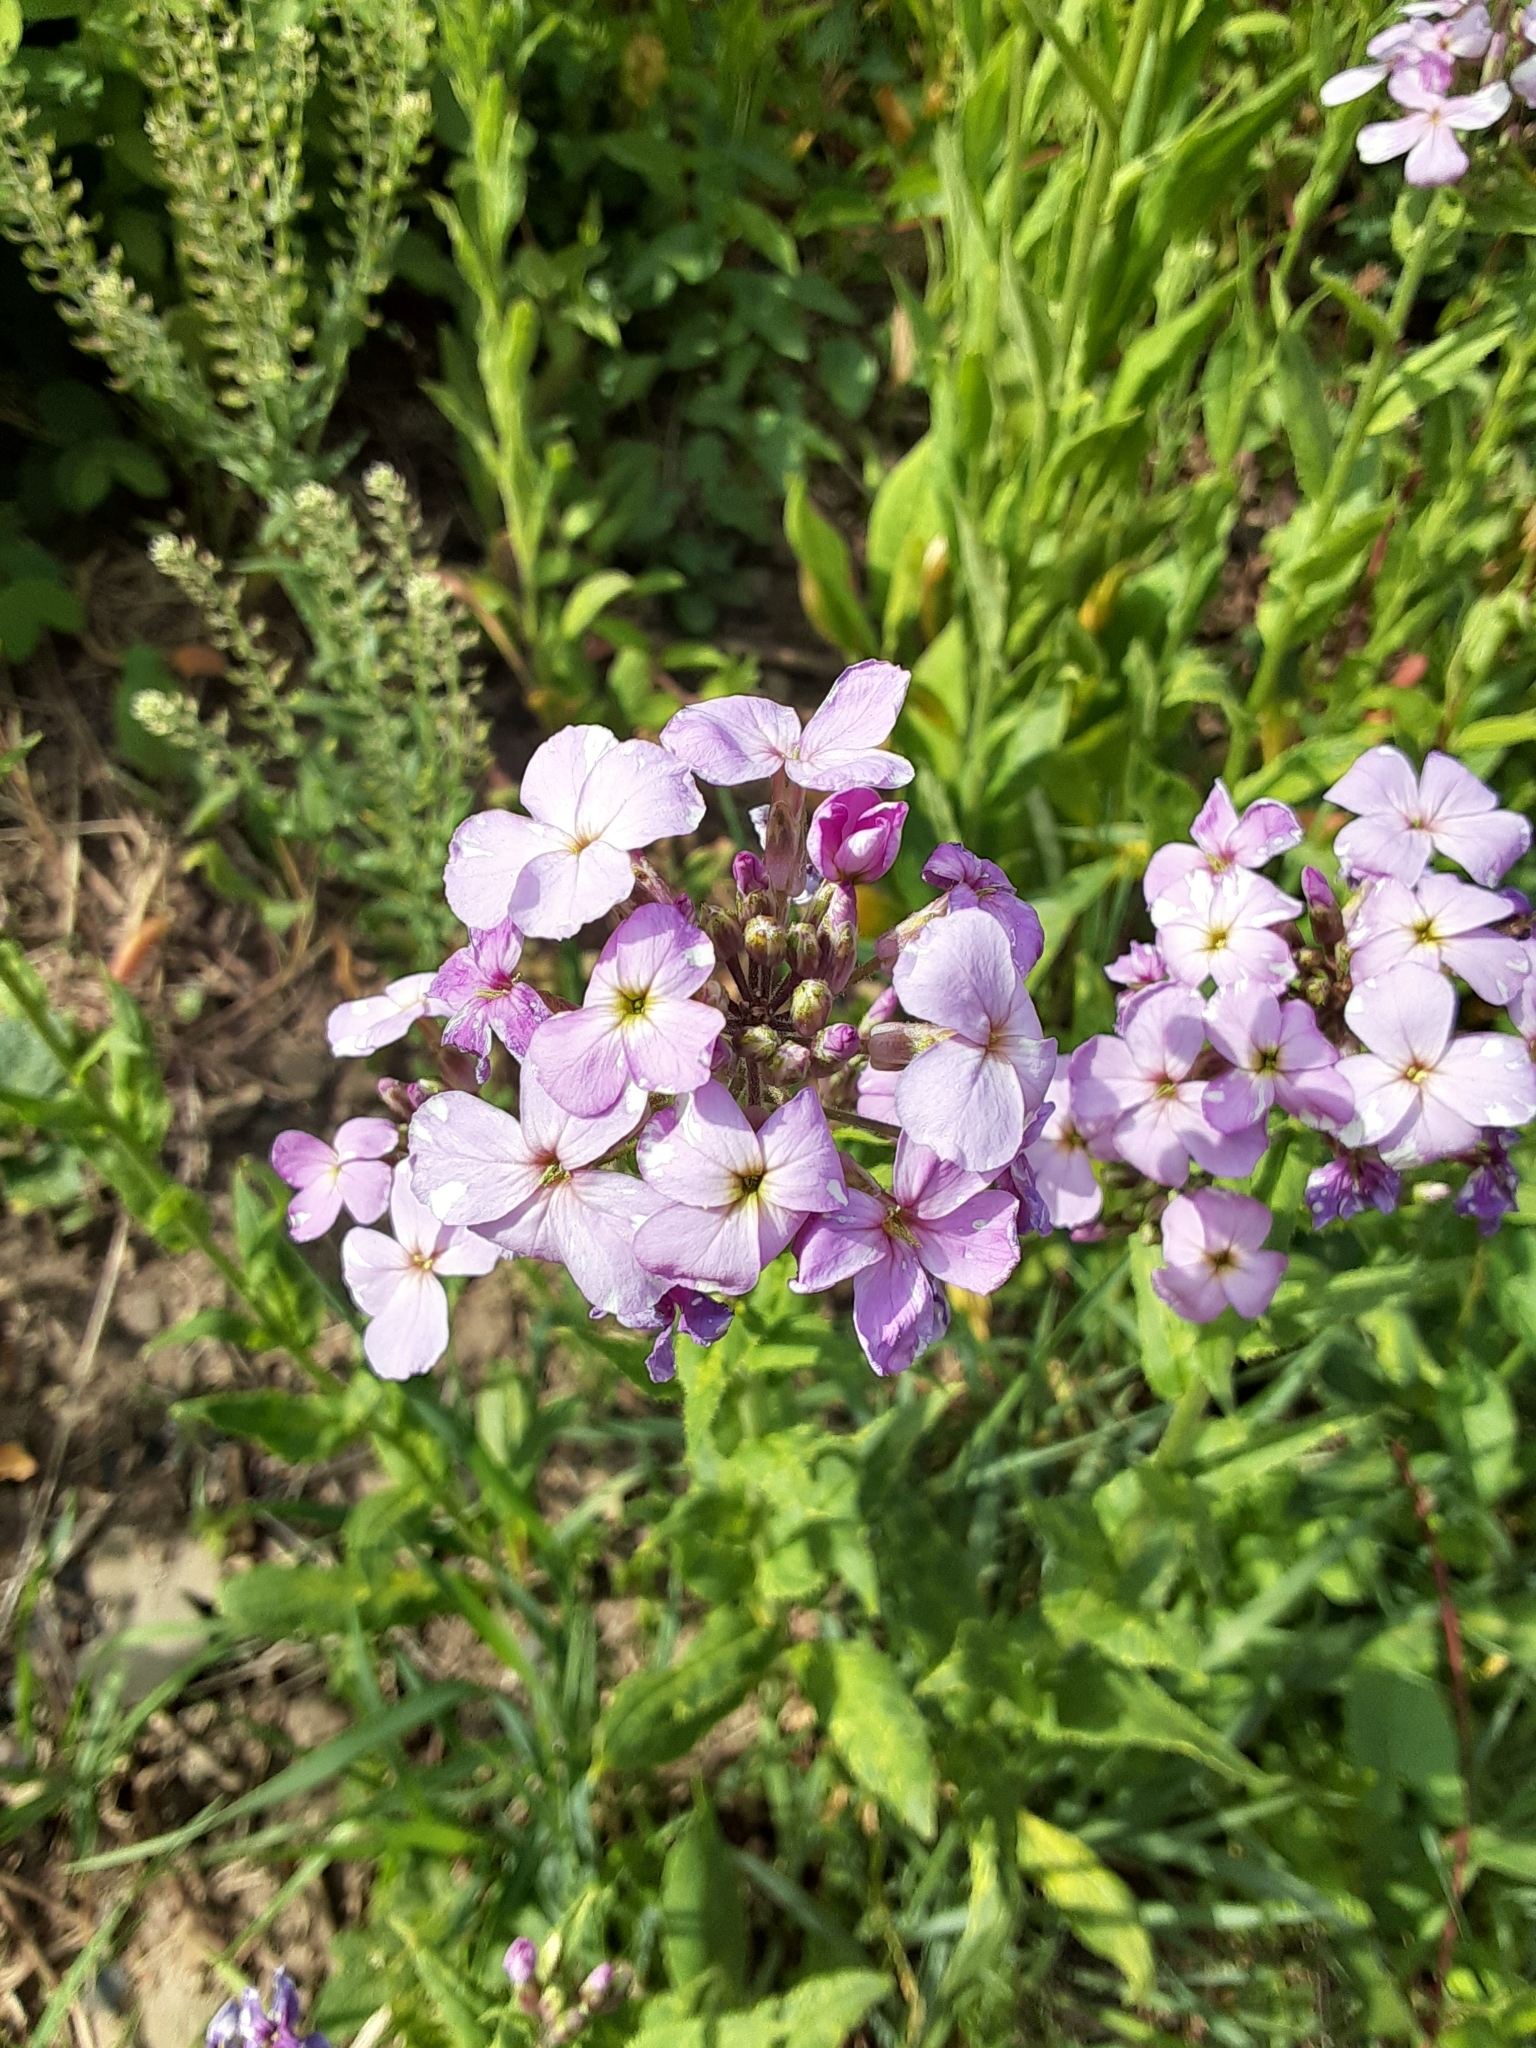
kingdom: Plantae
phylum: Tracheophyta
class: Magnoliopsida
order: Brassicales
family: Brassicaceae
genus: Hesperis
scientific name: Hesperis matronalis
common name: Dame's-violet
